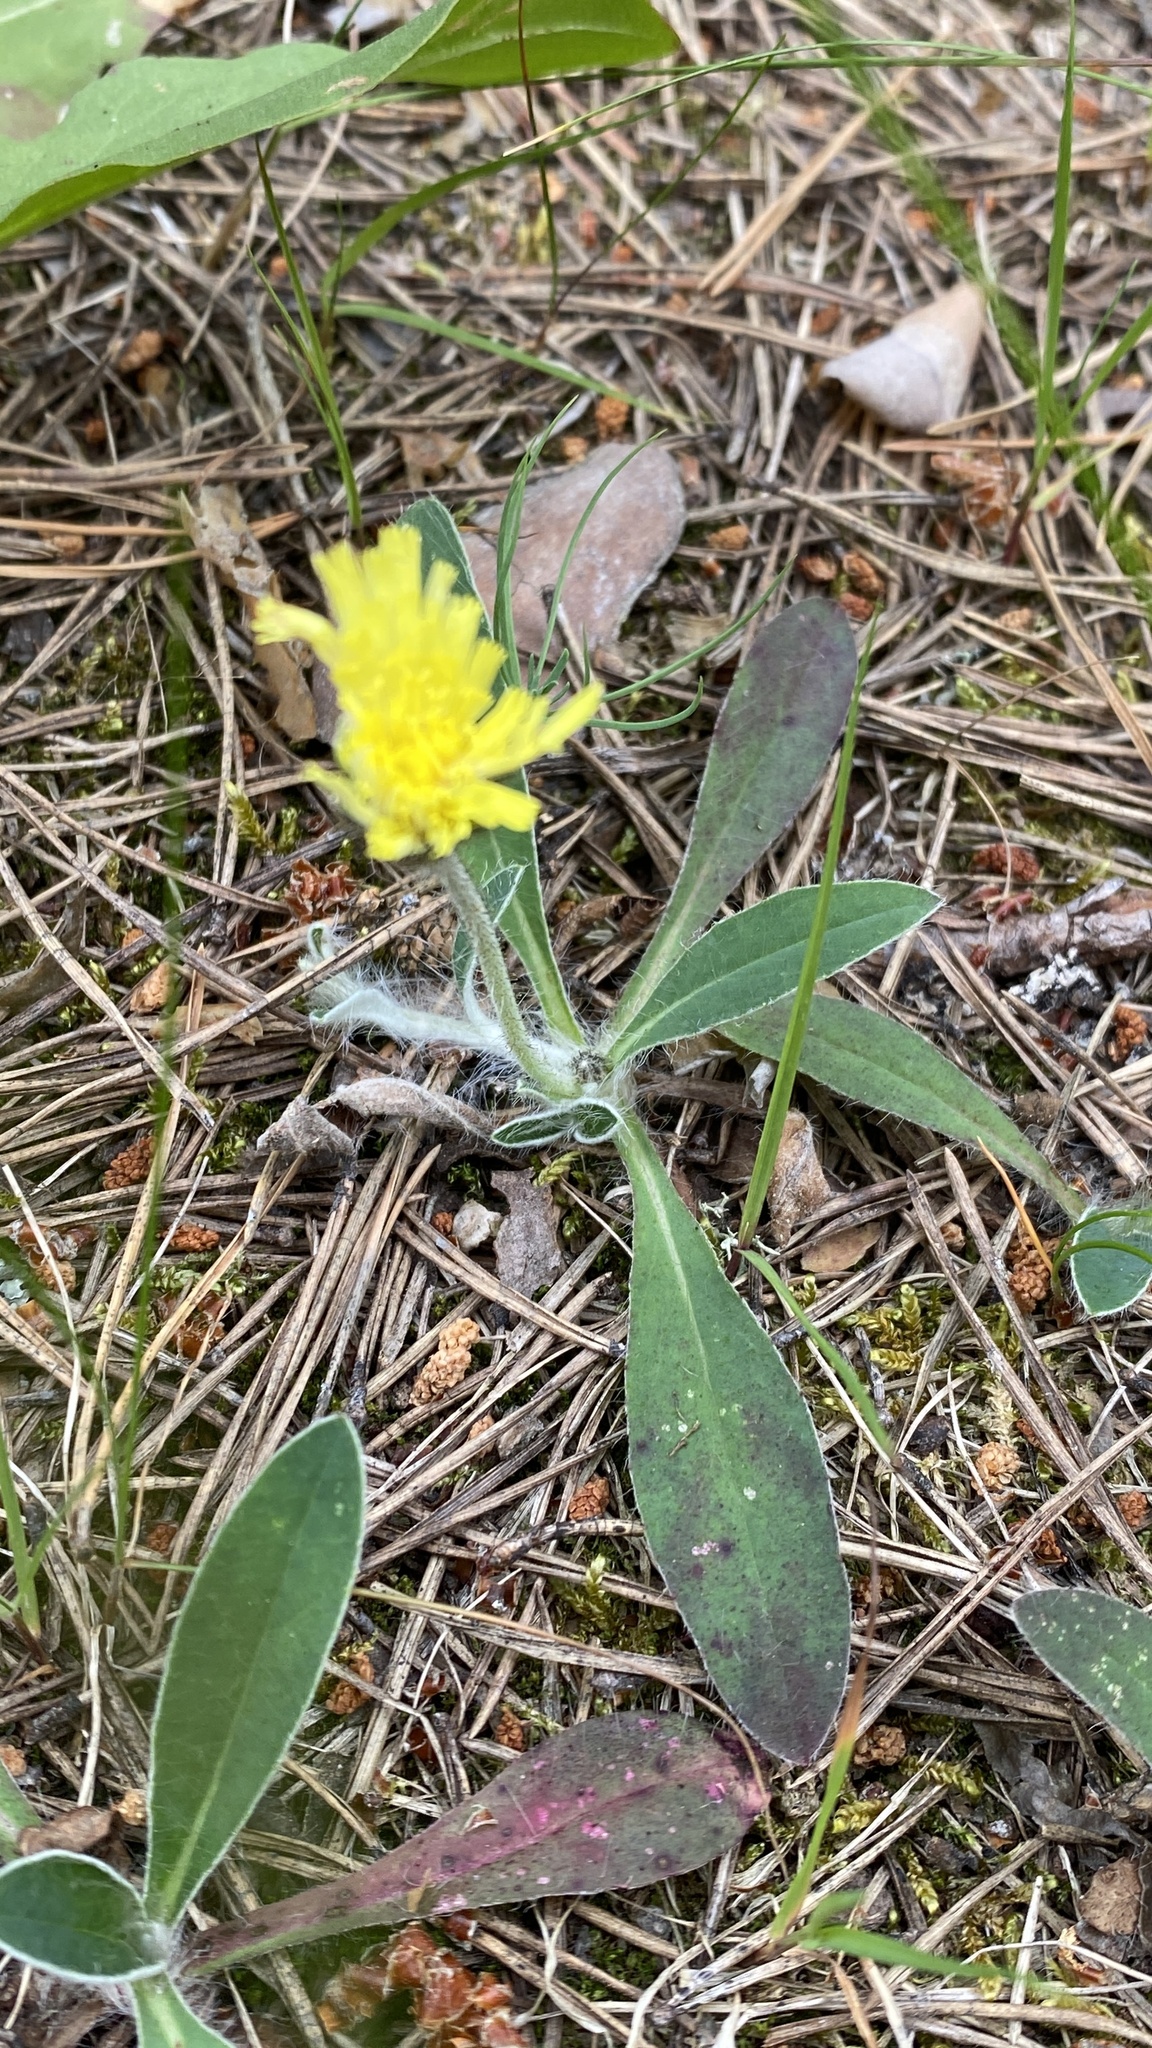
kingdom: Plantae
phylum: Tracheophyta
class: Magnoliopsida
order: Asterales
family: Asteraceae
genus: Pilosella
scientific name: Pilosella officinarum
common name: Mouse-ear hawkweed
